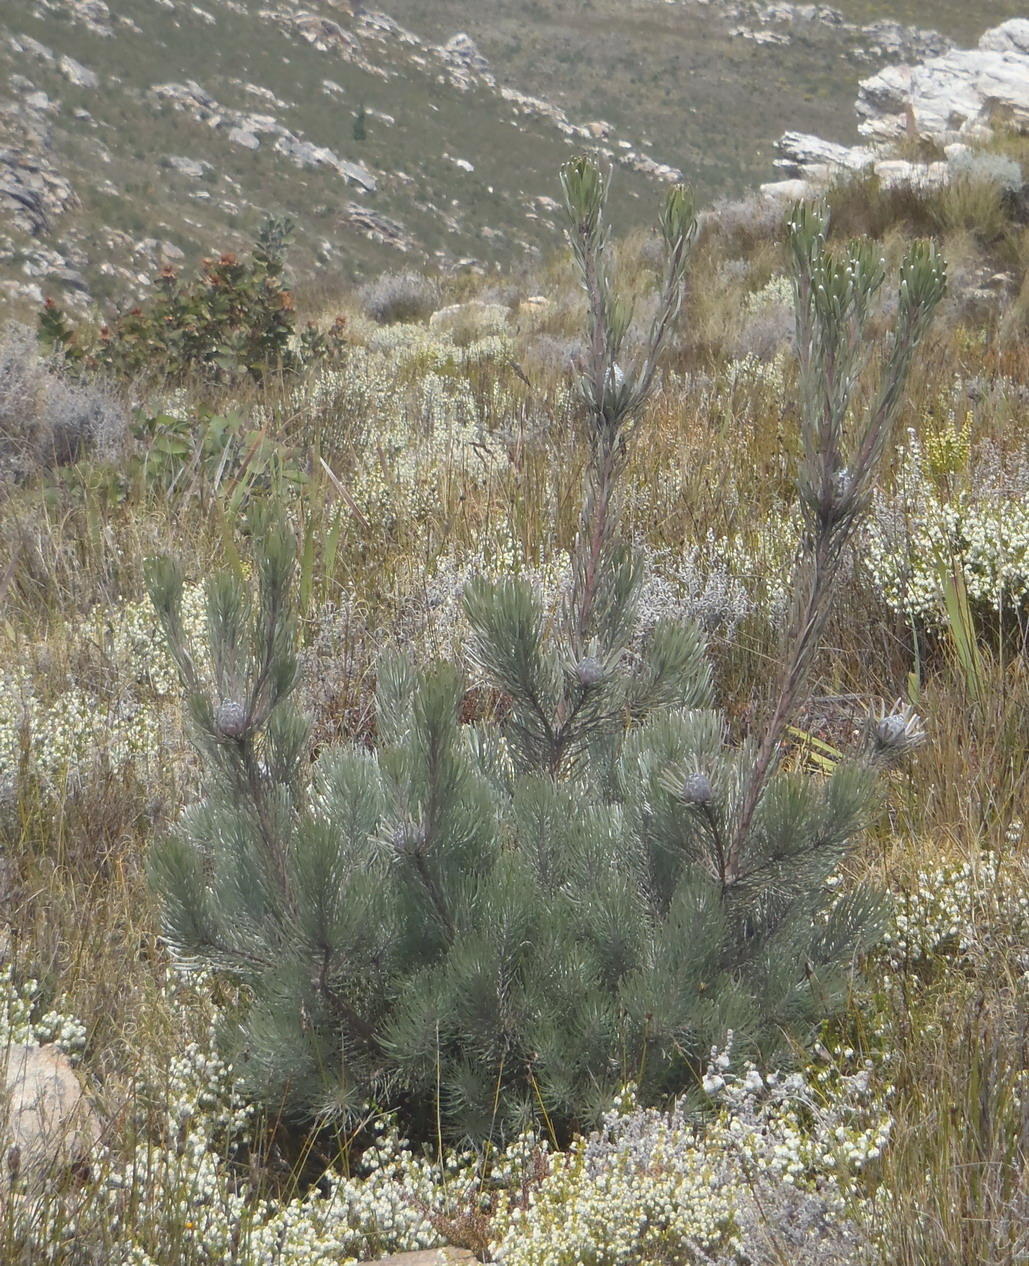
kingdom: Plantae
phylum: Tracheophyta
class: Magnoliopsida
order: Proteales
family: Proteaceae
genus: Leucadendron
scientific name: Leucadendron album
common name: Linear-leaf conebush
